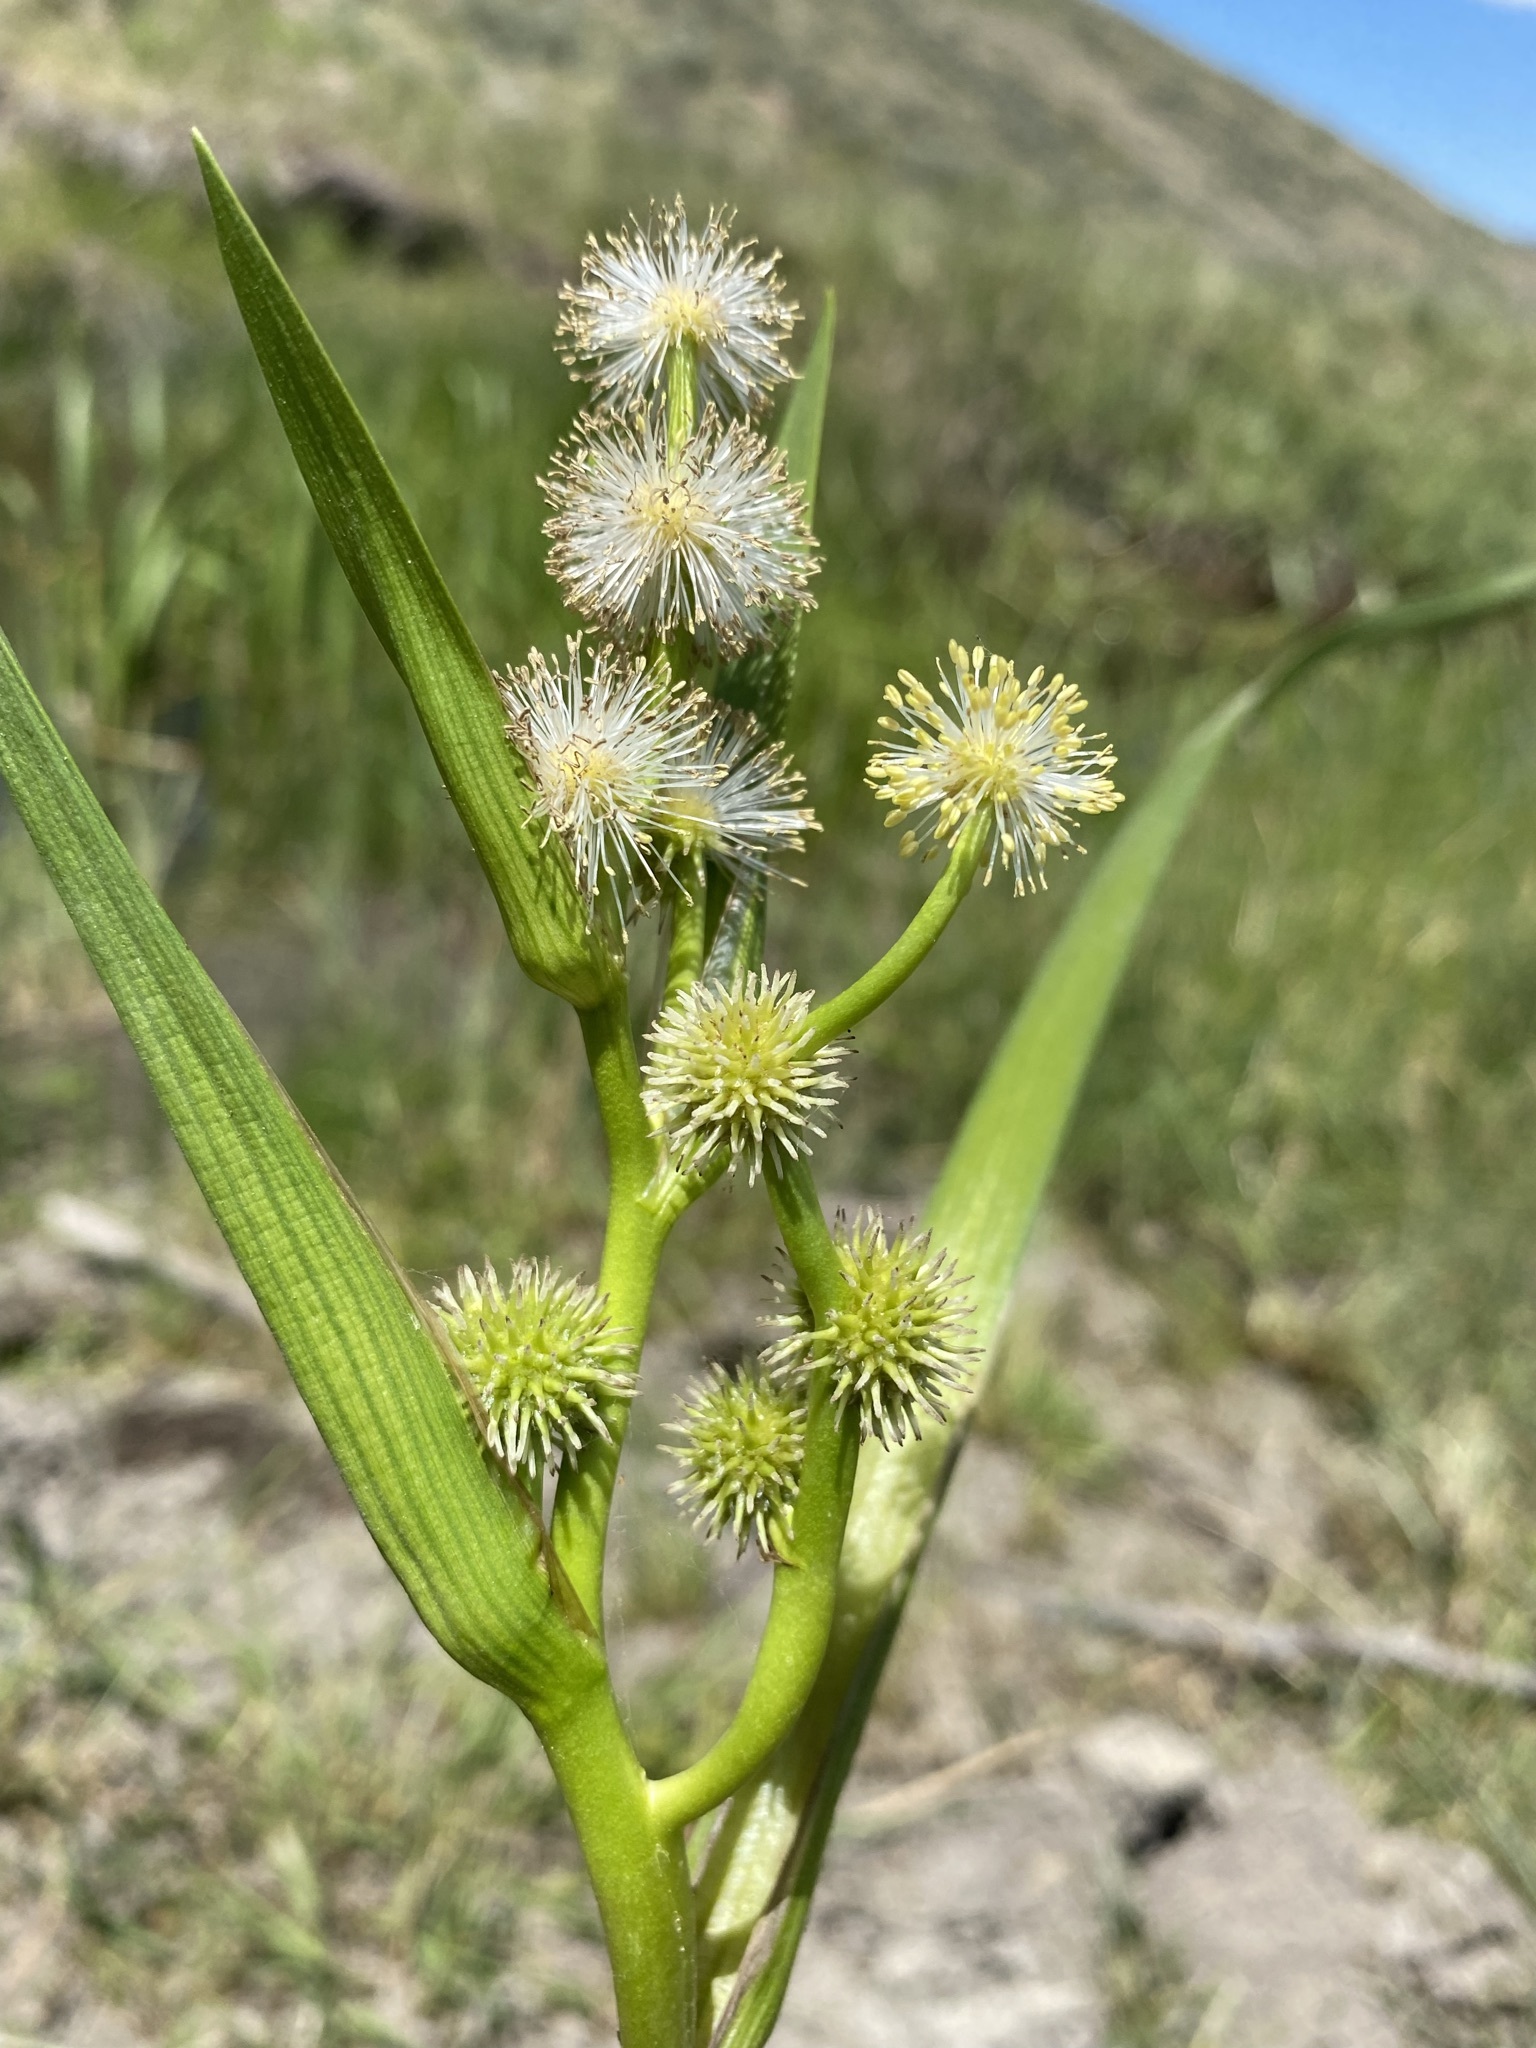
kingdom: Plantae
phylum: Tracheophyta
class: Liliopsida
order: Poales
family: Typhaceae
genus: Sparganium
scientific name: Sparganium eurycarpum
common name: Broad-fruited burreed
